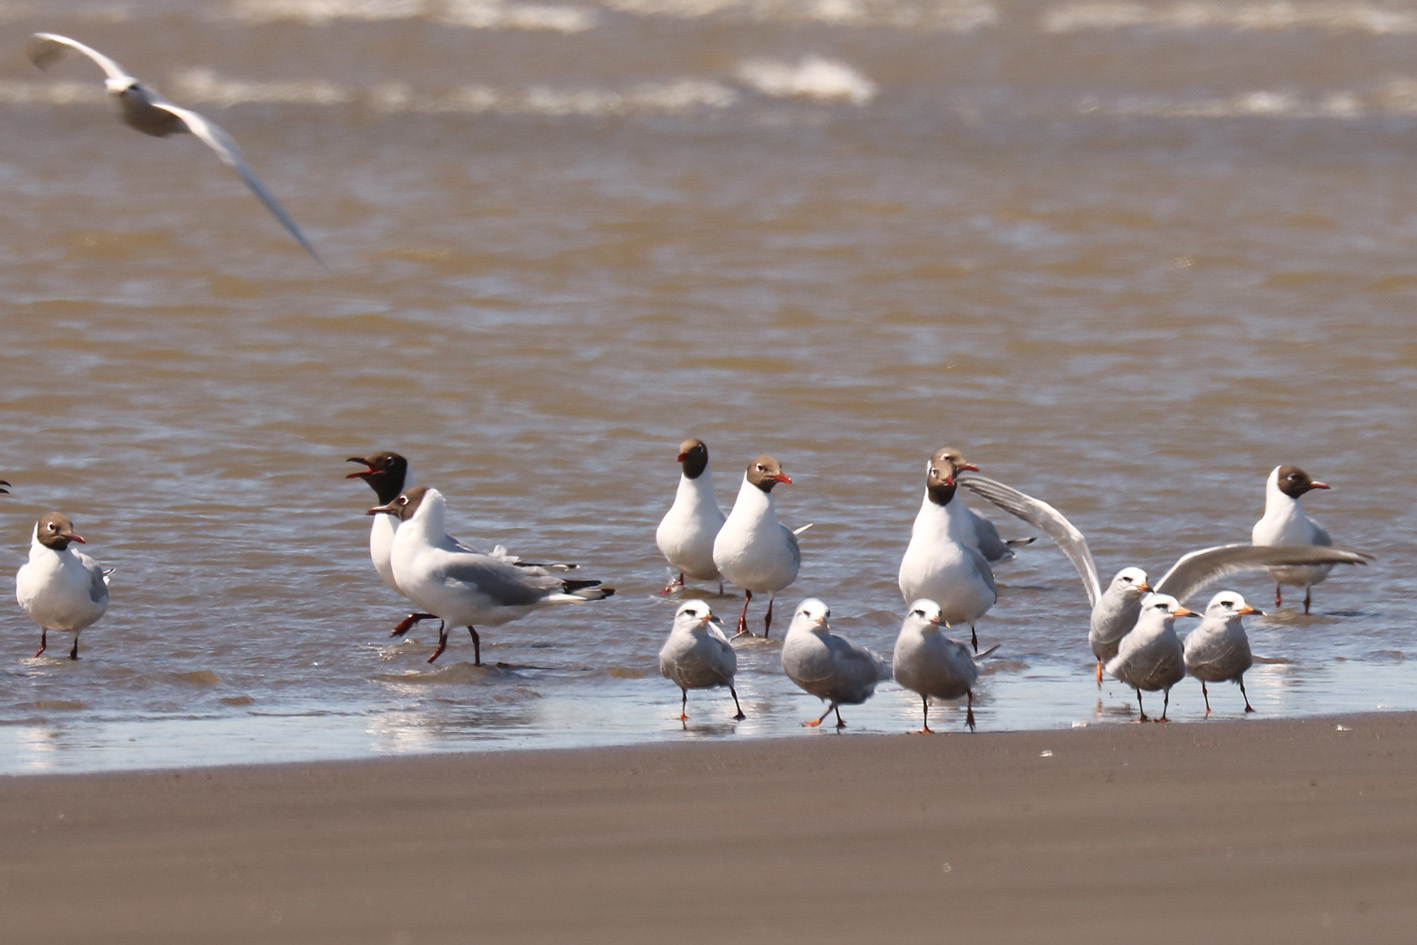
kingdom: Animalia
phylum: Chordata
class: Aves
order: Charadriiformes
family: Laridae
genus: Chroicocephalus
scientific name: Chroicocephalus maculipennis
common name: Brown-hooded gull
